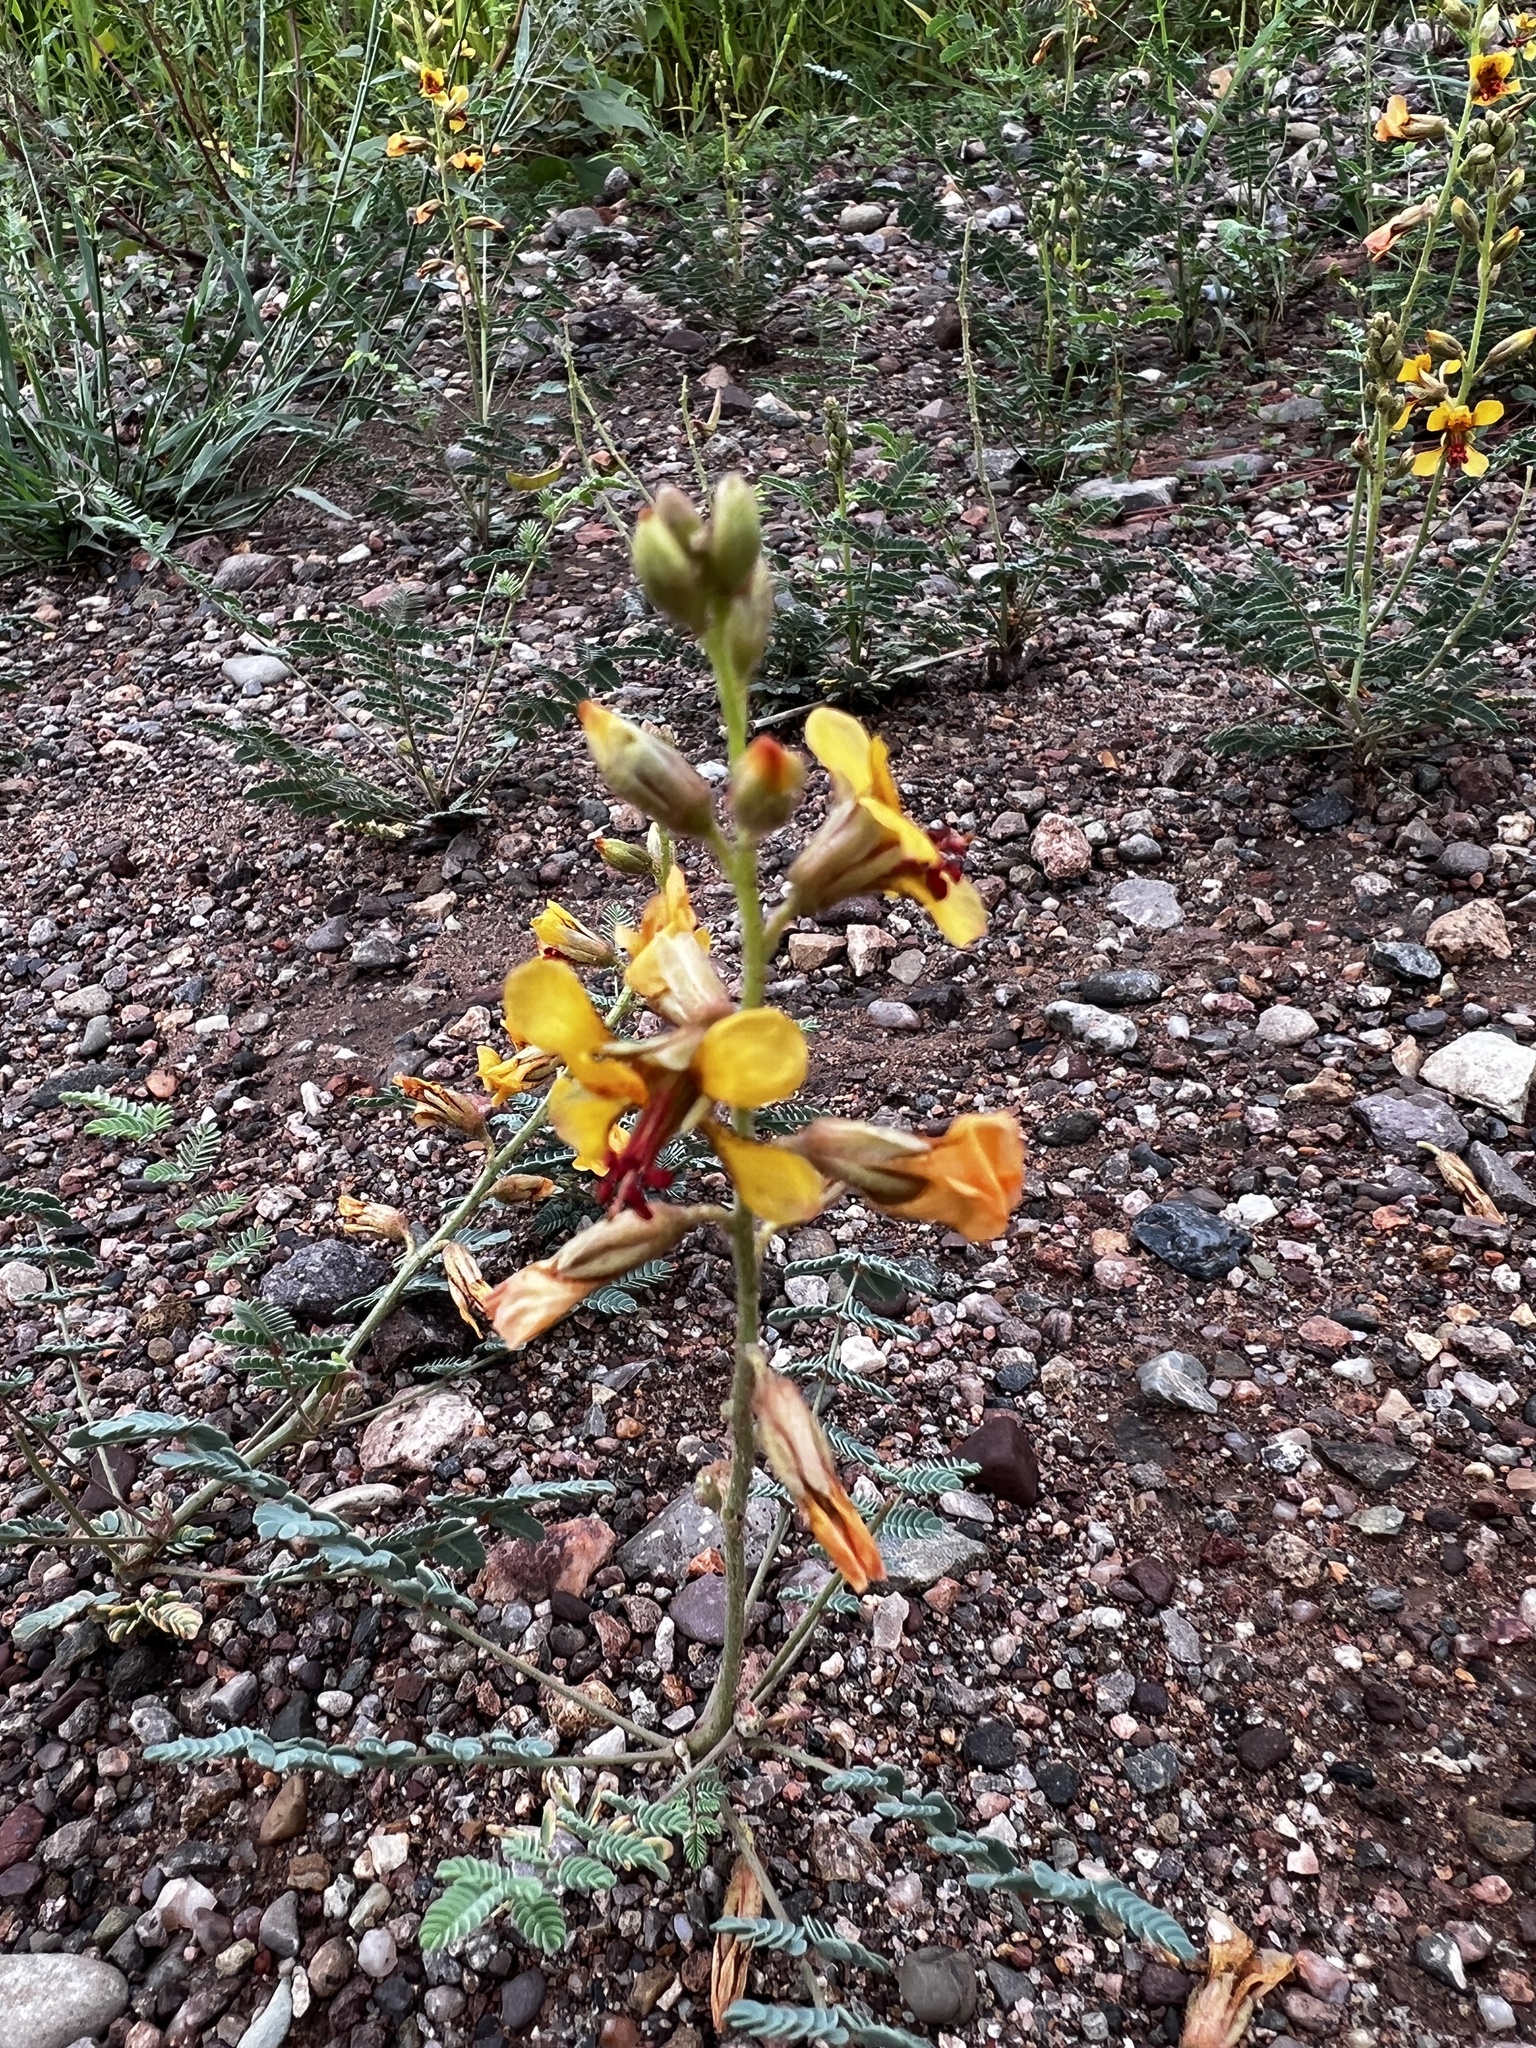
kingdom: Plantae
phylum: Tracheophyta
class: Magnoliopsida
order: Fabales
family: Fabaceae
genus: Hoffmannseggia
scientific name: Hoffmannseggia glauca
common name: Pignut
